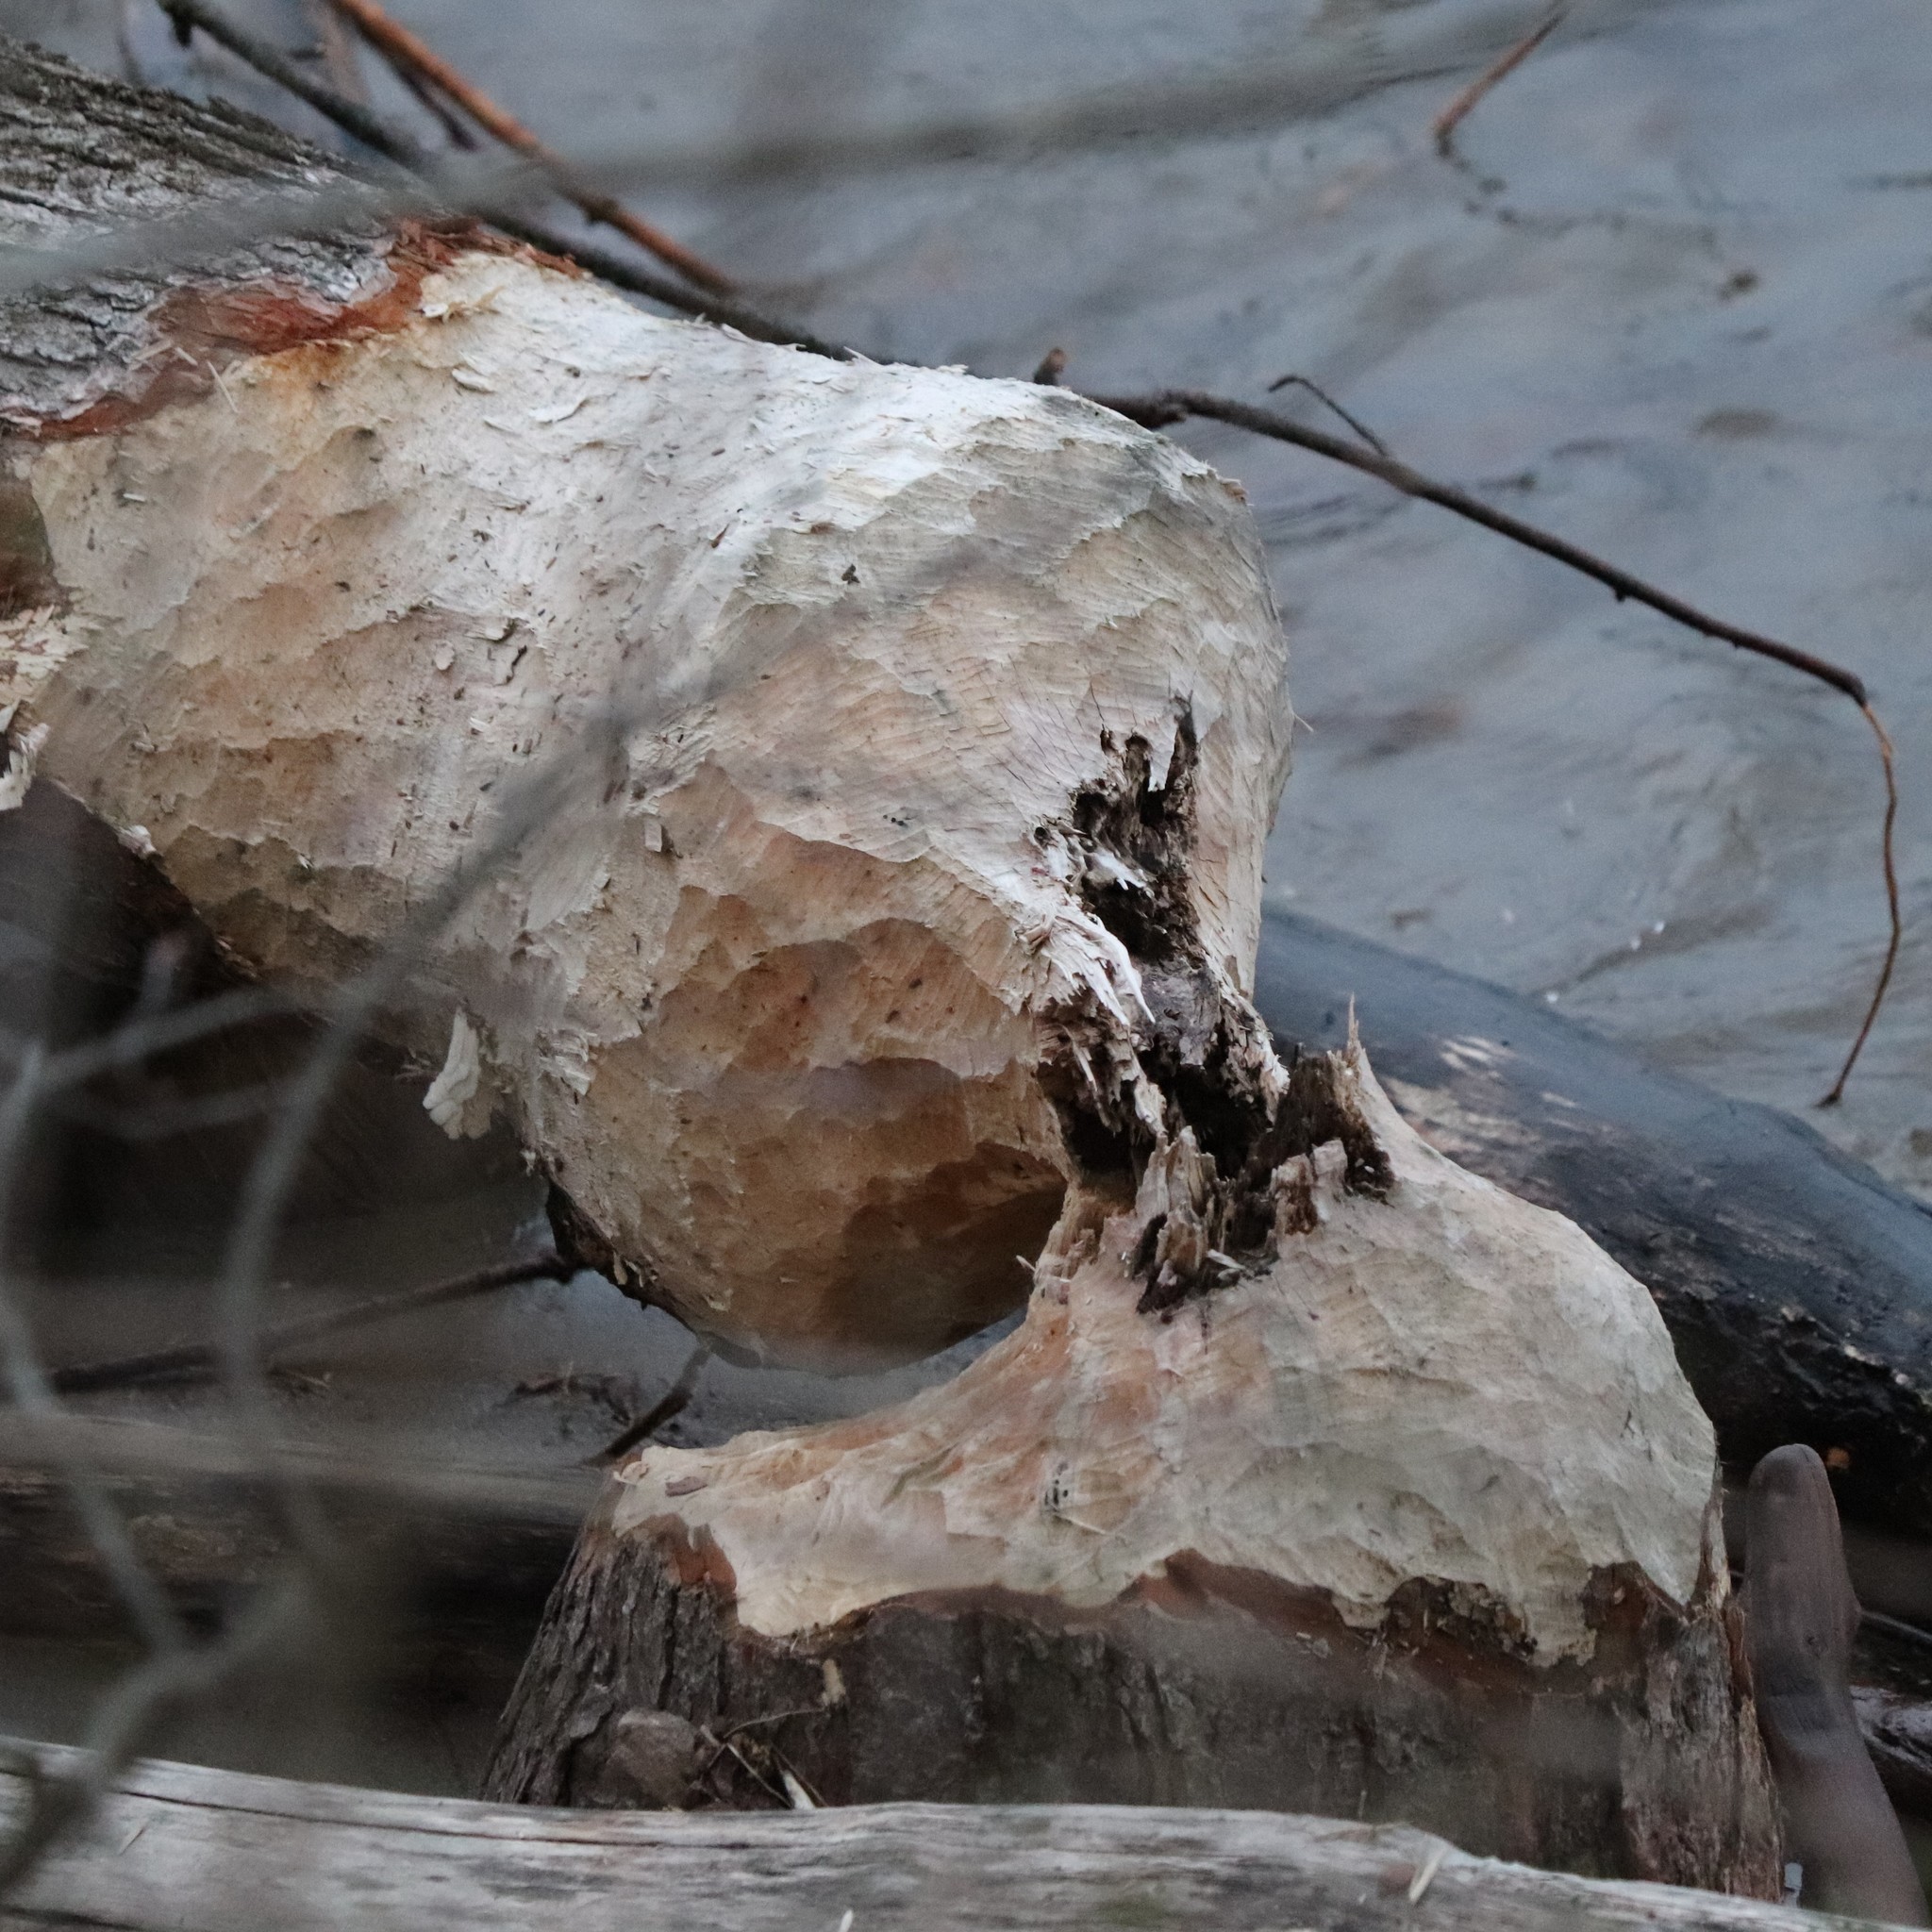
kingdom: Animalia
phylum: Chordata
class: Mammalia
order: Rodentia
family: Castoridae
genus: Castor
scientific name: Castor canadensis
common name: American beaver
